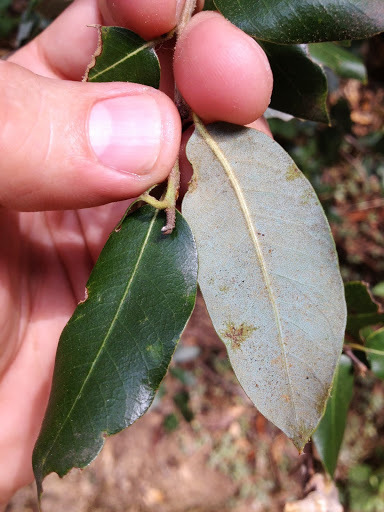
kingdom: Plantae
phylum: Tracheophyta
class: Magnoliopsida
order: Fagales
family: Fagaceae
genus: Quercus
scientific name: Quercus chrysolepis
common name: Canyon live oak
